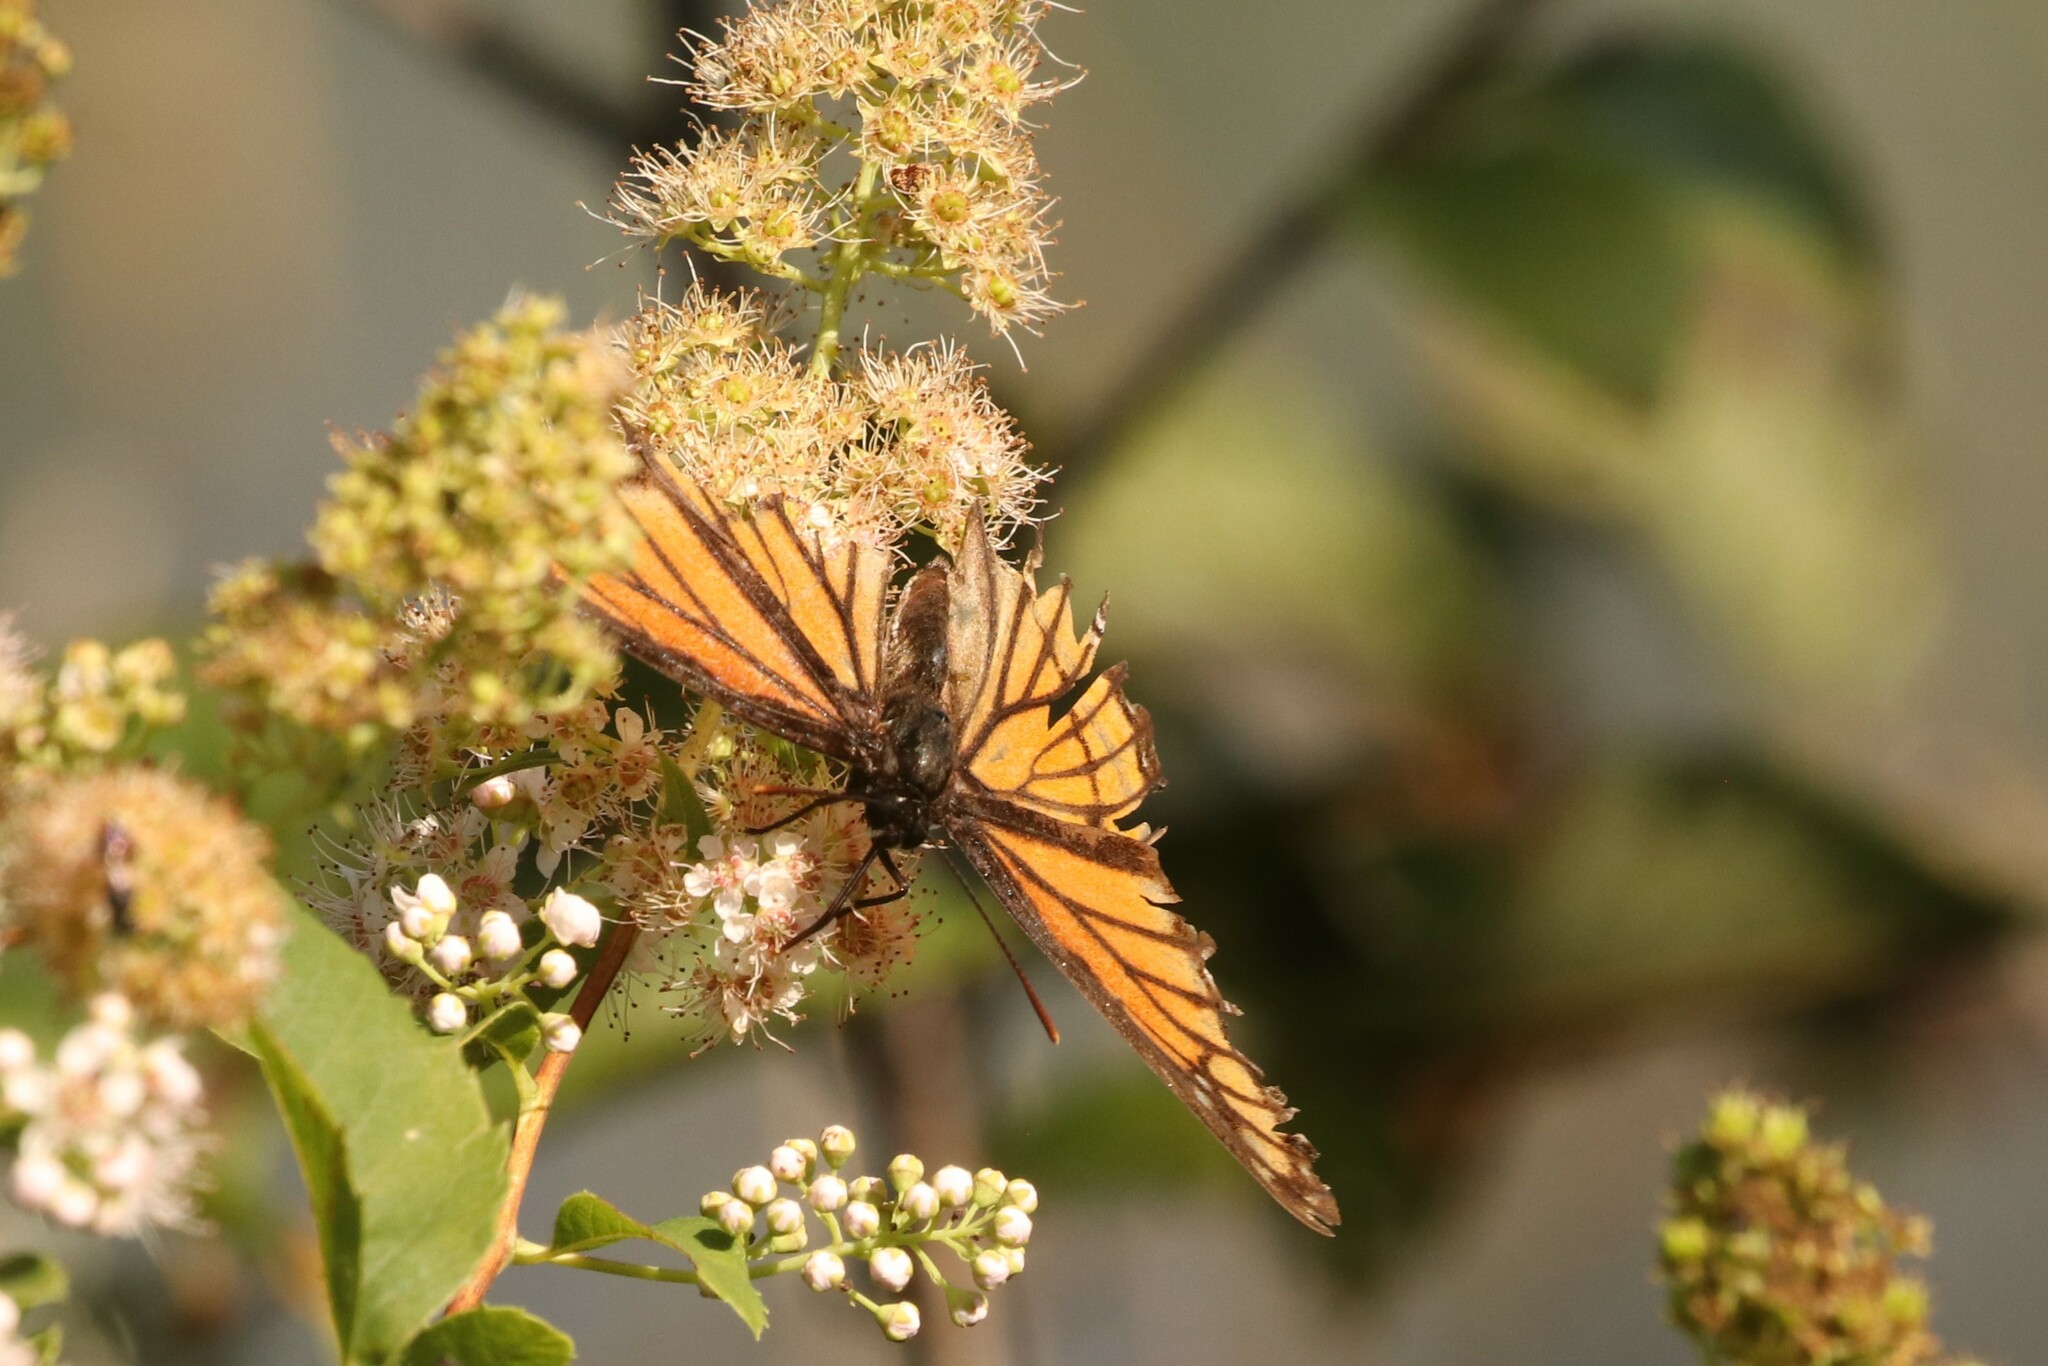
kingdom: Animalia
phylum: Arthropoda
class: Insecta
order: Lepidoptera
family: Nymphalidae
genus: Limenitis
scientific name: Limenitis archippus
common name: Viceroy
